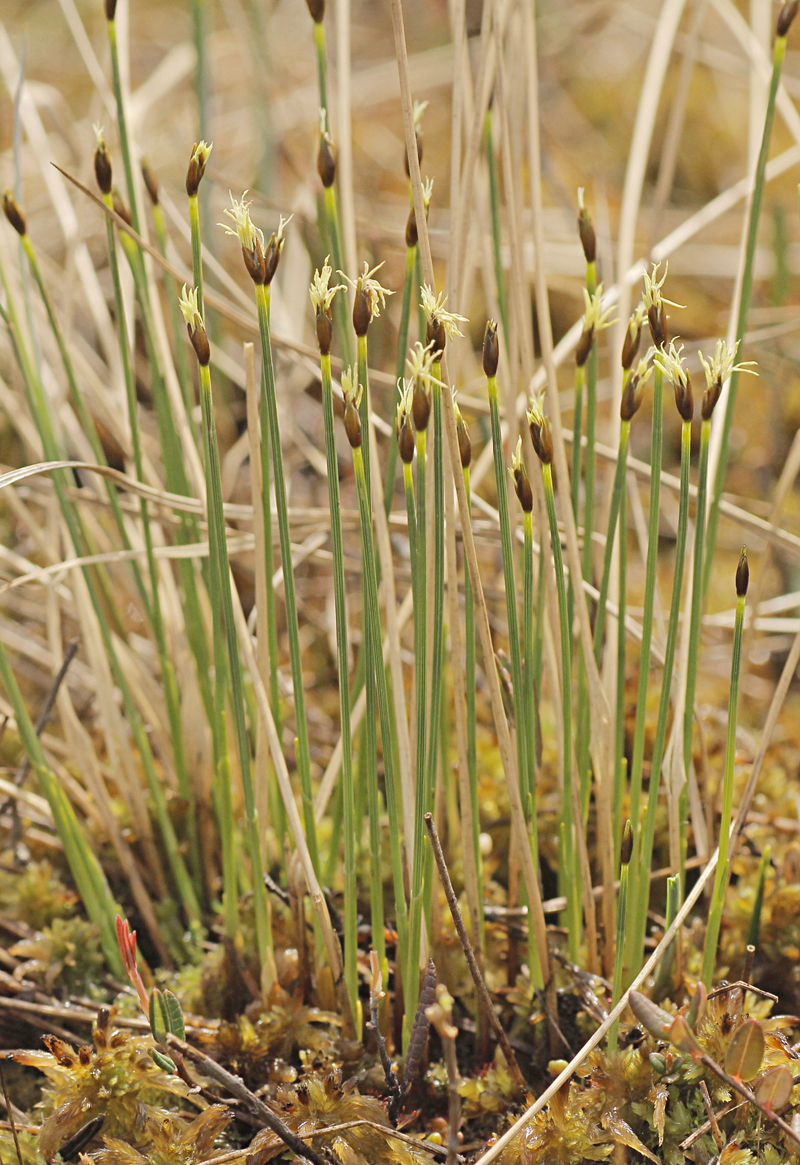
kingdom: Plantae
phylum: Tracheophyta
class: Liliopsida
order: Poales
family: Cyperaceae
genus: Trichophorum
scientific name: Trichophorum cespitosum
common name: Cespitose bulrush
